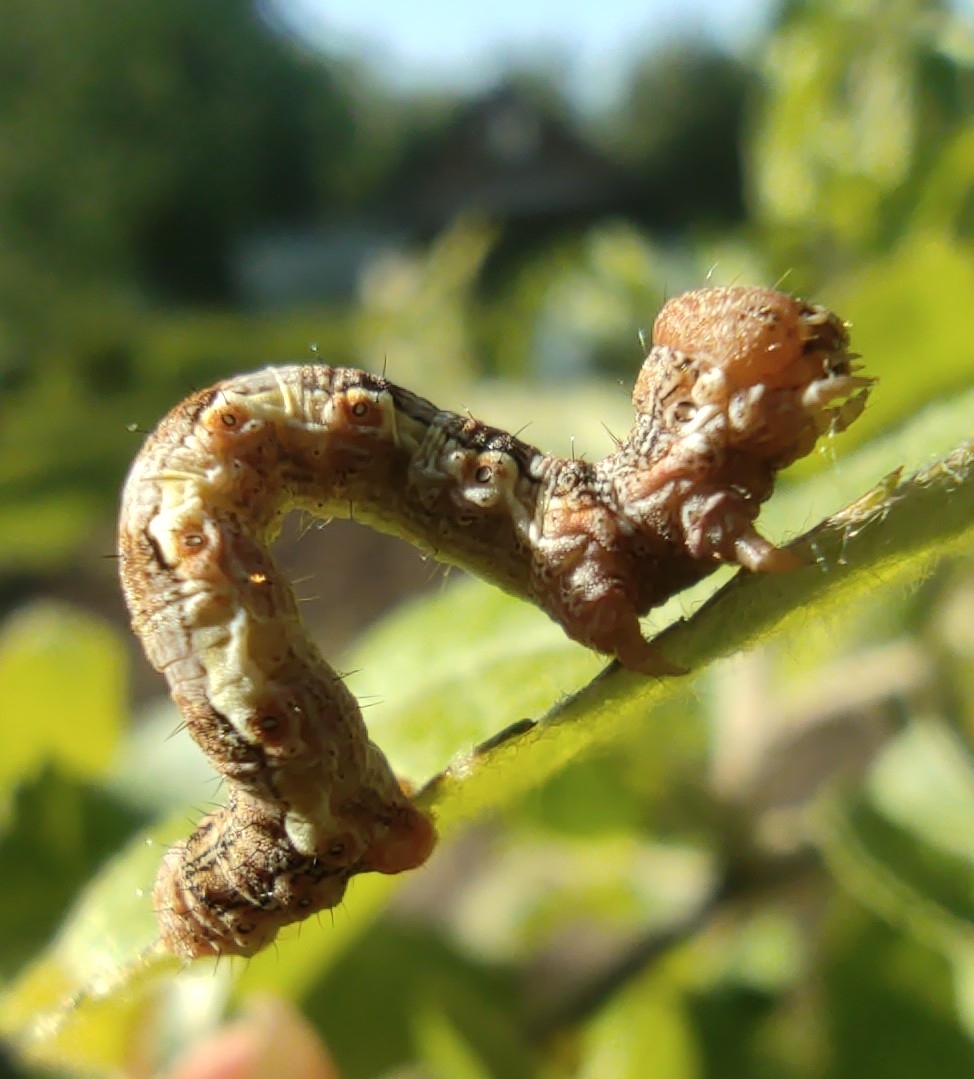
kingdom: Animalia
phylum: Arthropoda
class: Insecta
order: Lepidoptera
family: Geometridae
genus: Erannis
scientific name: Erannis defoliaria
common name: Mottled umber
